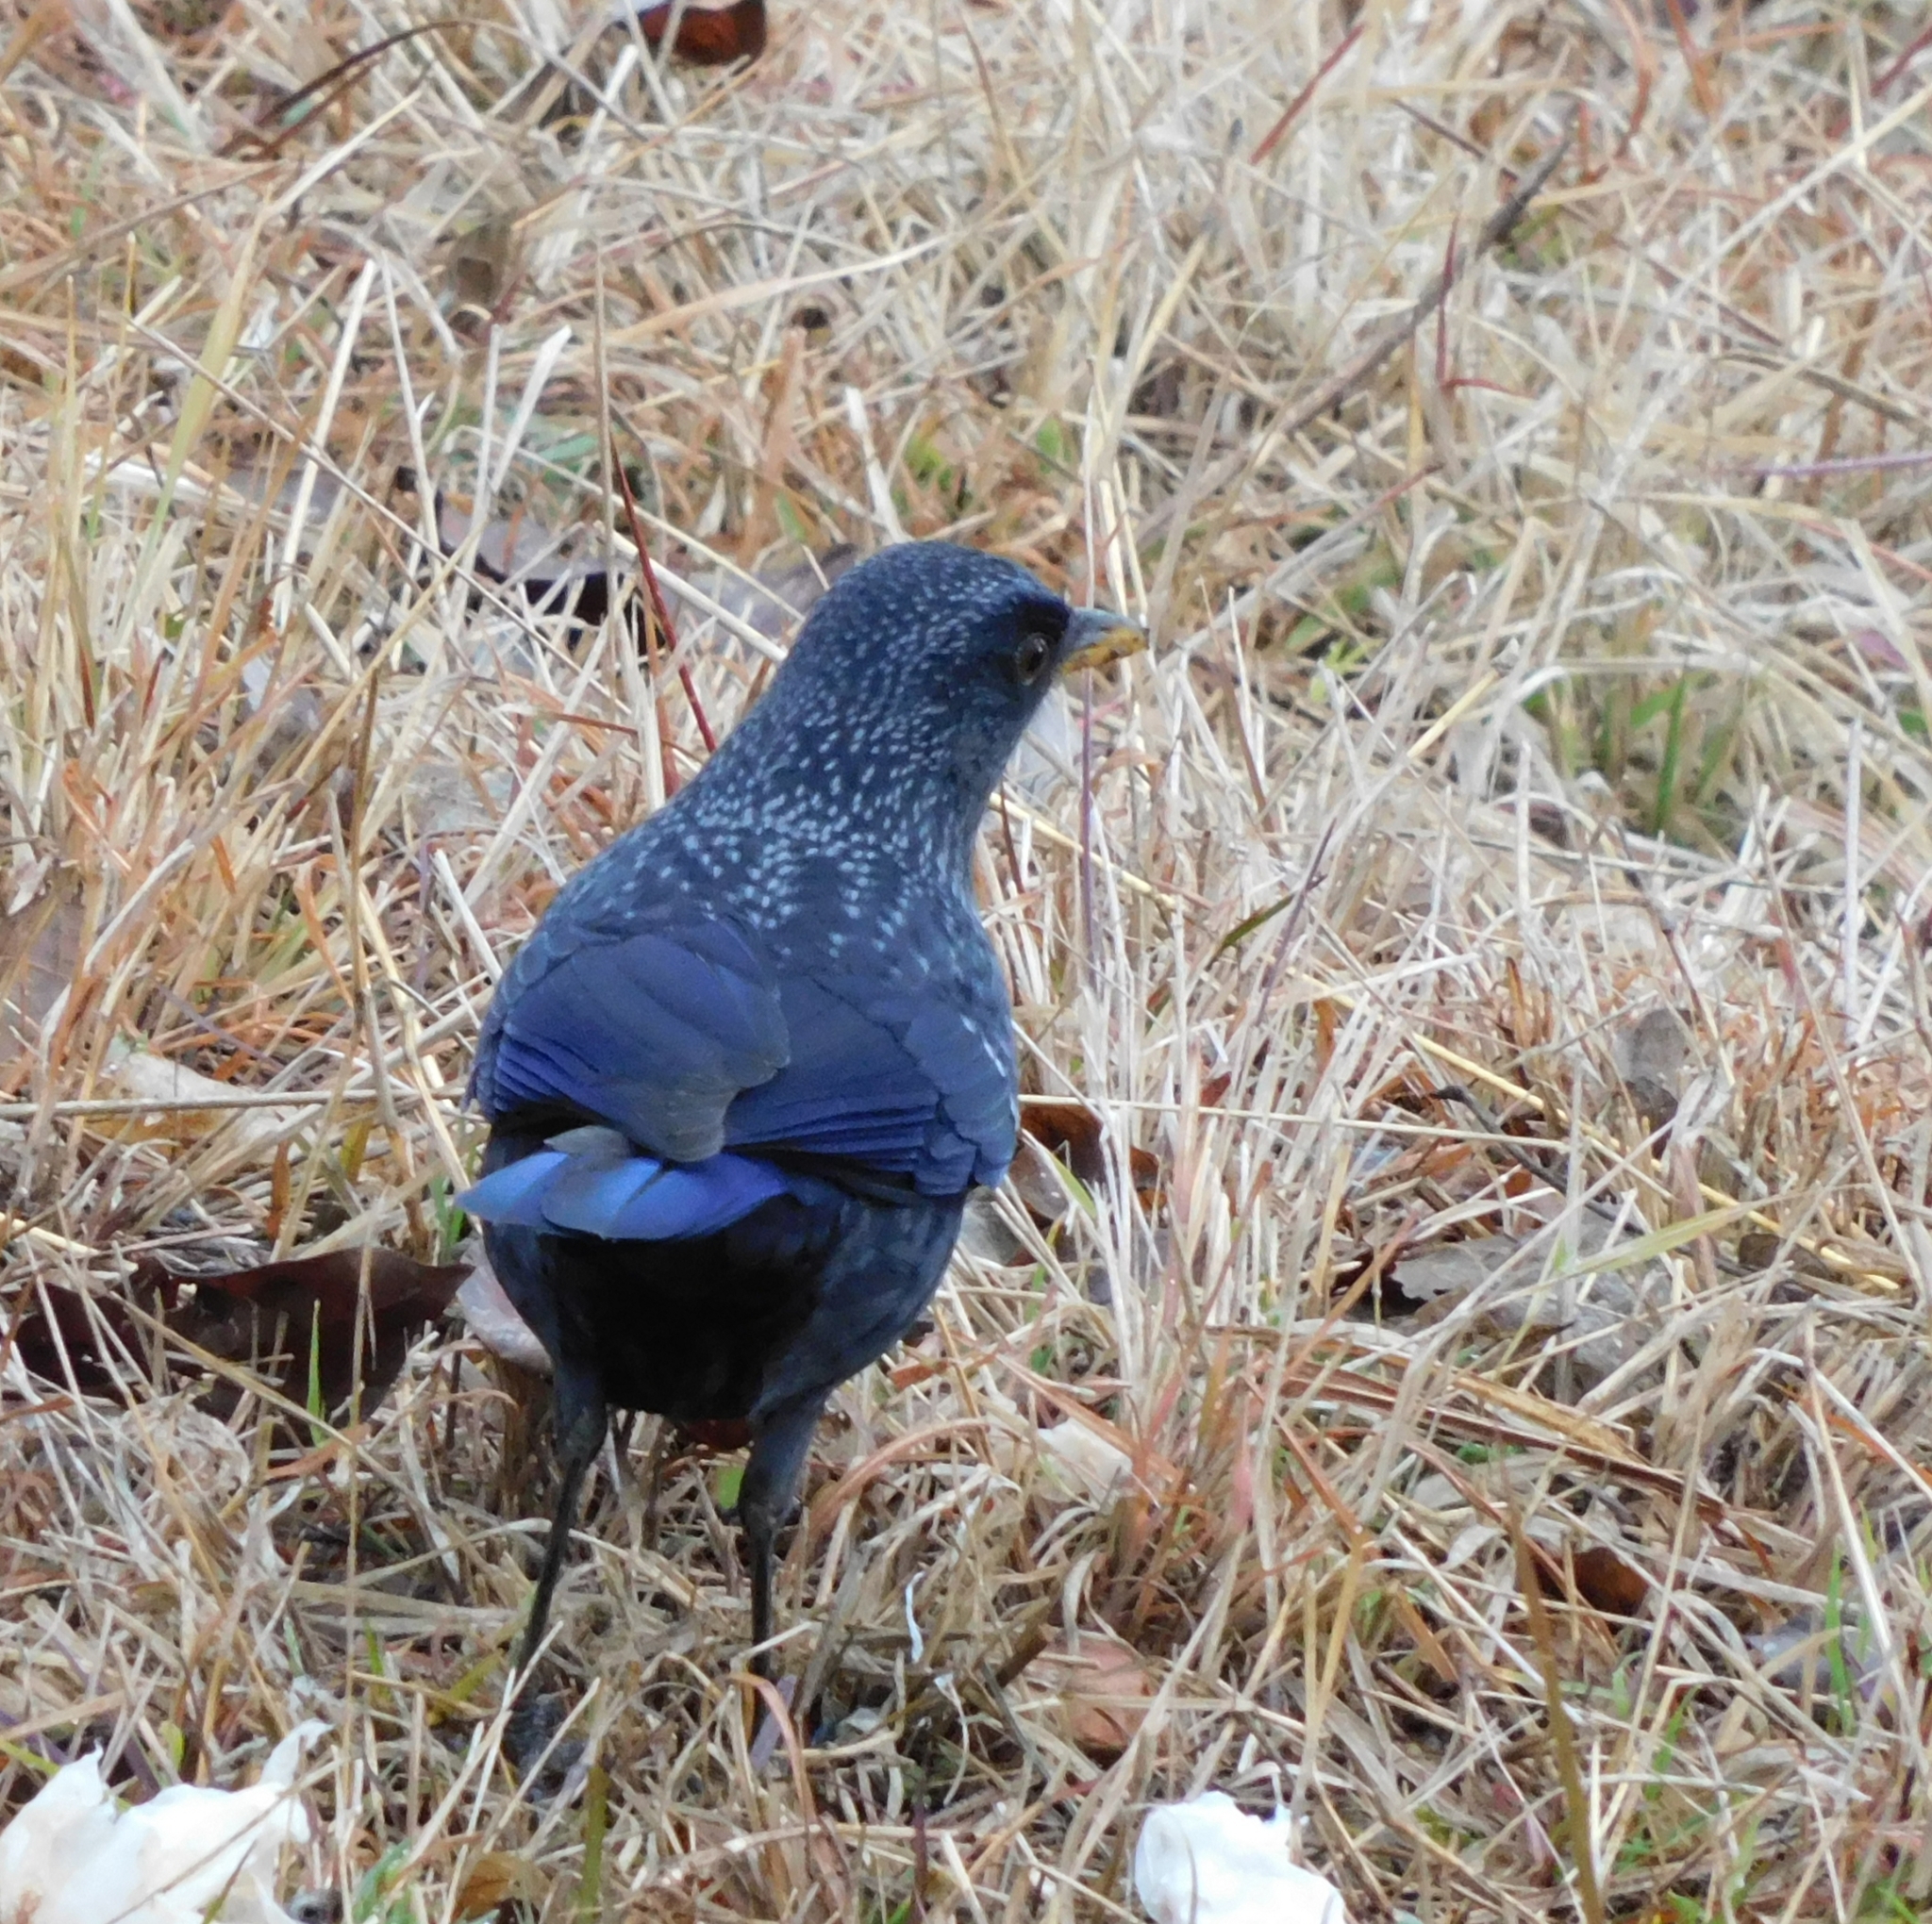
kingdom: Animalia
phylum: Chordata
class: Aves
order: Passeriformes
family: Muscicapidae
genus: Myophonus
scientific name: Myophonus caeruleus
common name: Blue whistling-thrush
